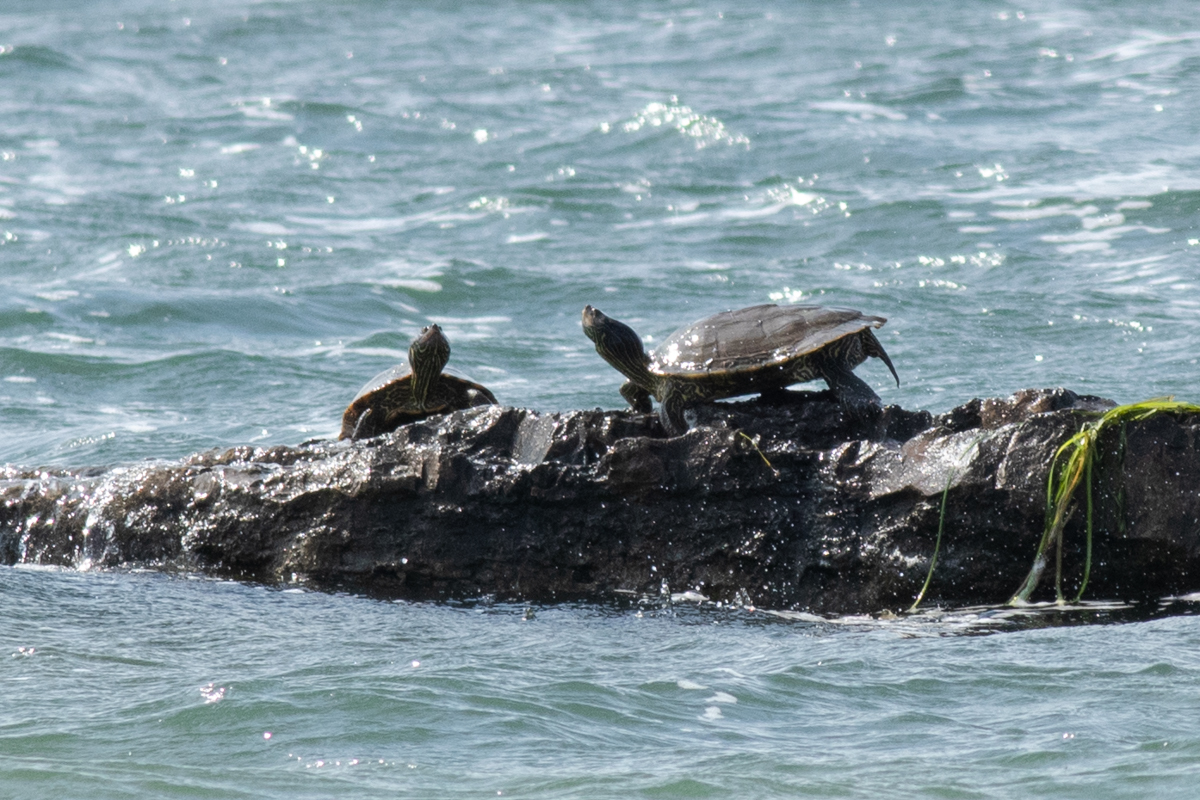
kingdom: Animalia
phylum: Chordata
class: Testudines
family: Emydidae
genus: Graptemys
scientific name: Graptemys geographica
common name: Common map turtle
